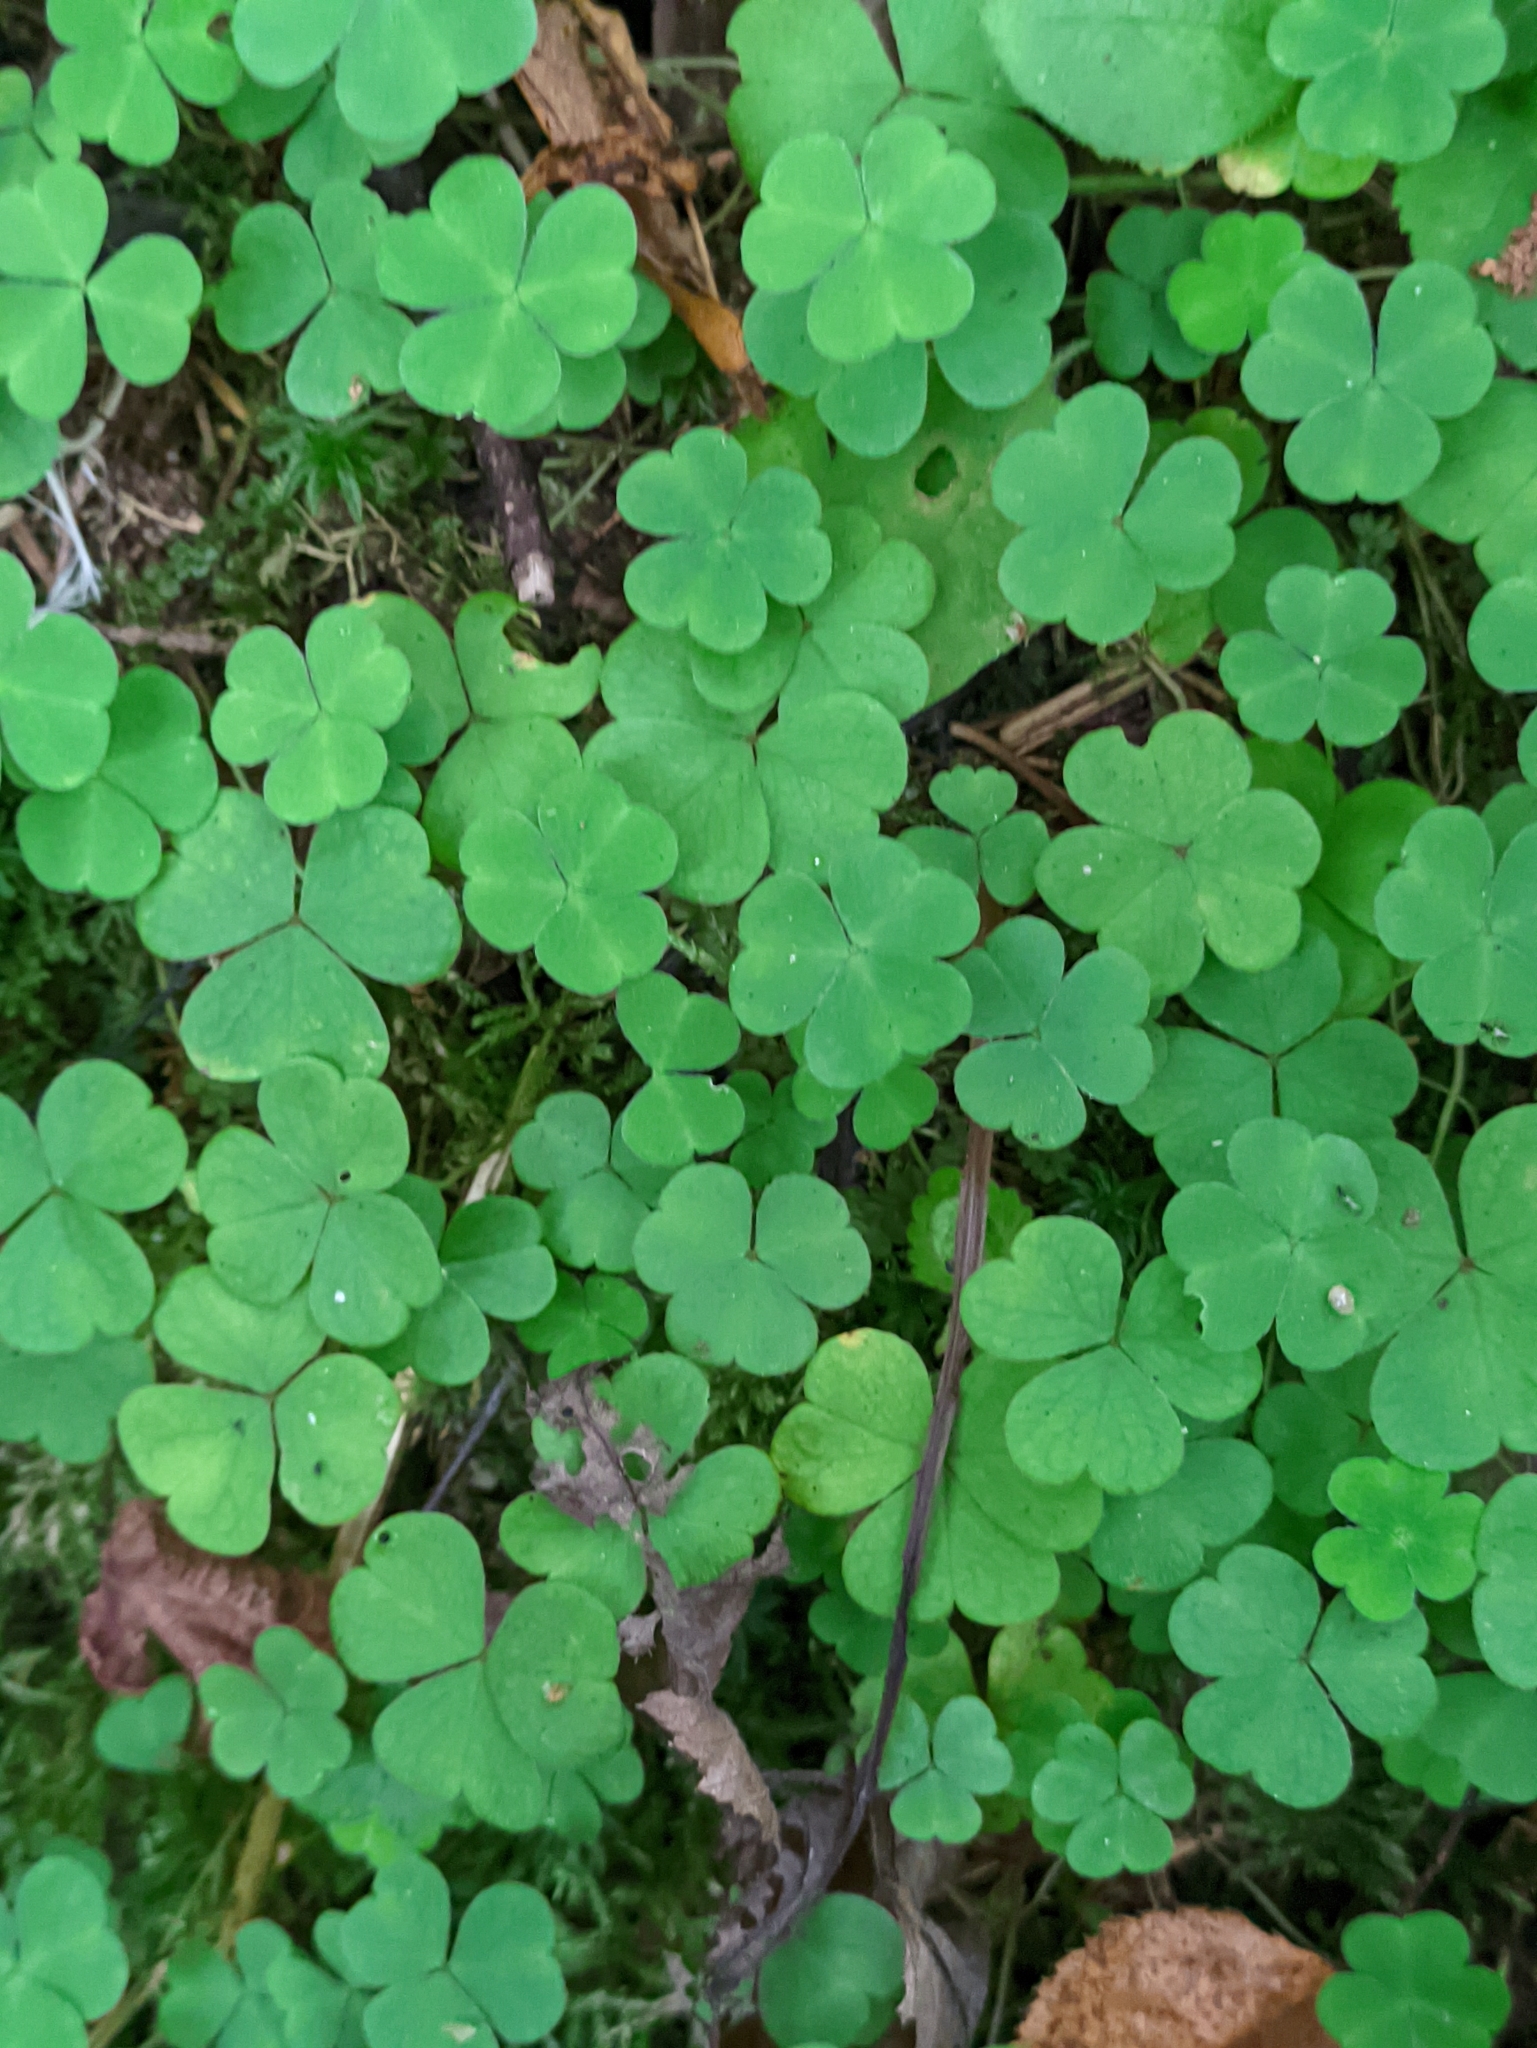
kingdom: Plantae
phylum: Tracheophyta
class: Magnoliopsida
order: Oxalidales
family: Oxalidaceae
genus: Oxalis
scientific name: Oxalis acetosella
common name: Wood-sorrel
